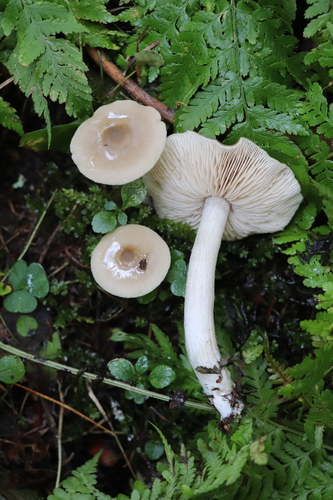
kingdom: Fungi
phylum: Basidiomycota
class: Agaricomycetes
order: Agaricales
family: Entolomataceae
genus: Entoloma
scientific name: Entoloma
